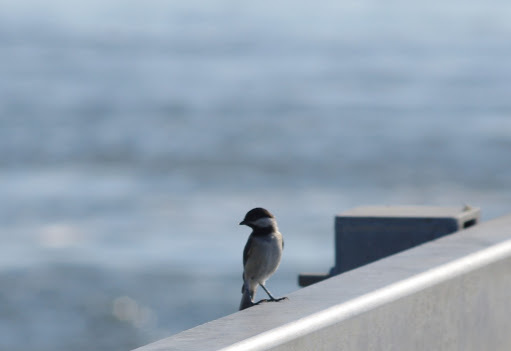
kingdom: Animalia
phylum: Chordata
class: Aves
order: Passeriformes
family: Paridae
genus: Poecile
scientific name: Poecile carolinensis
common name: Carolina chickadee
